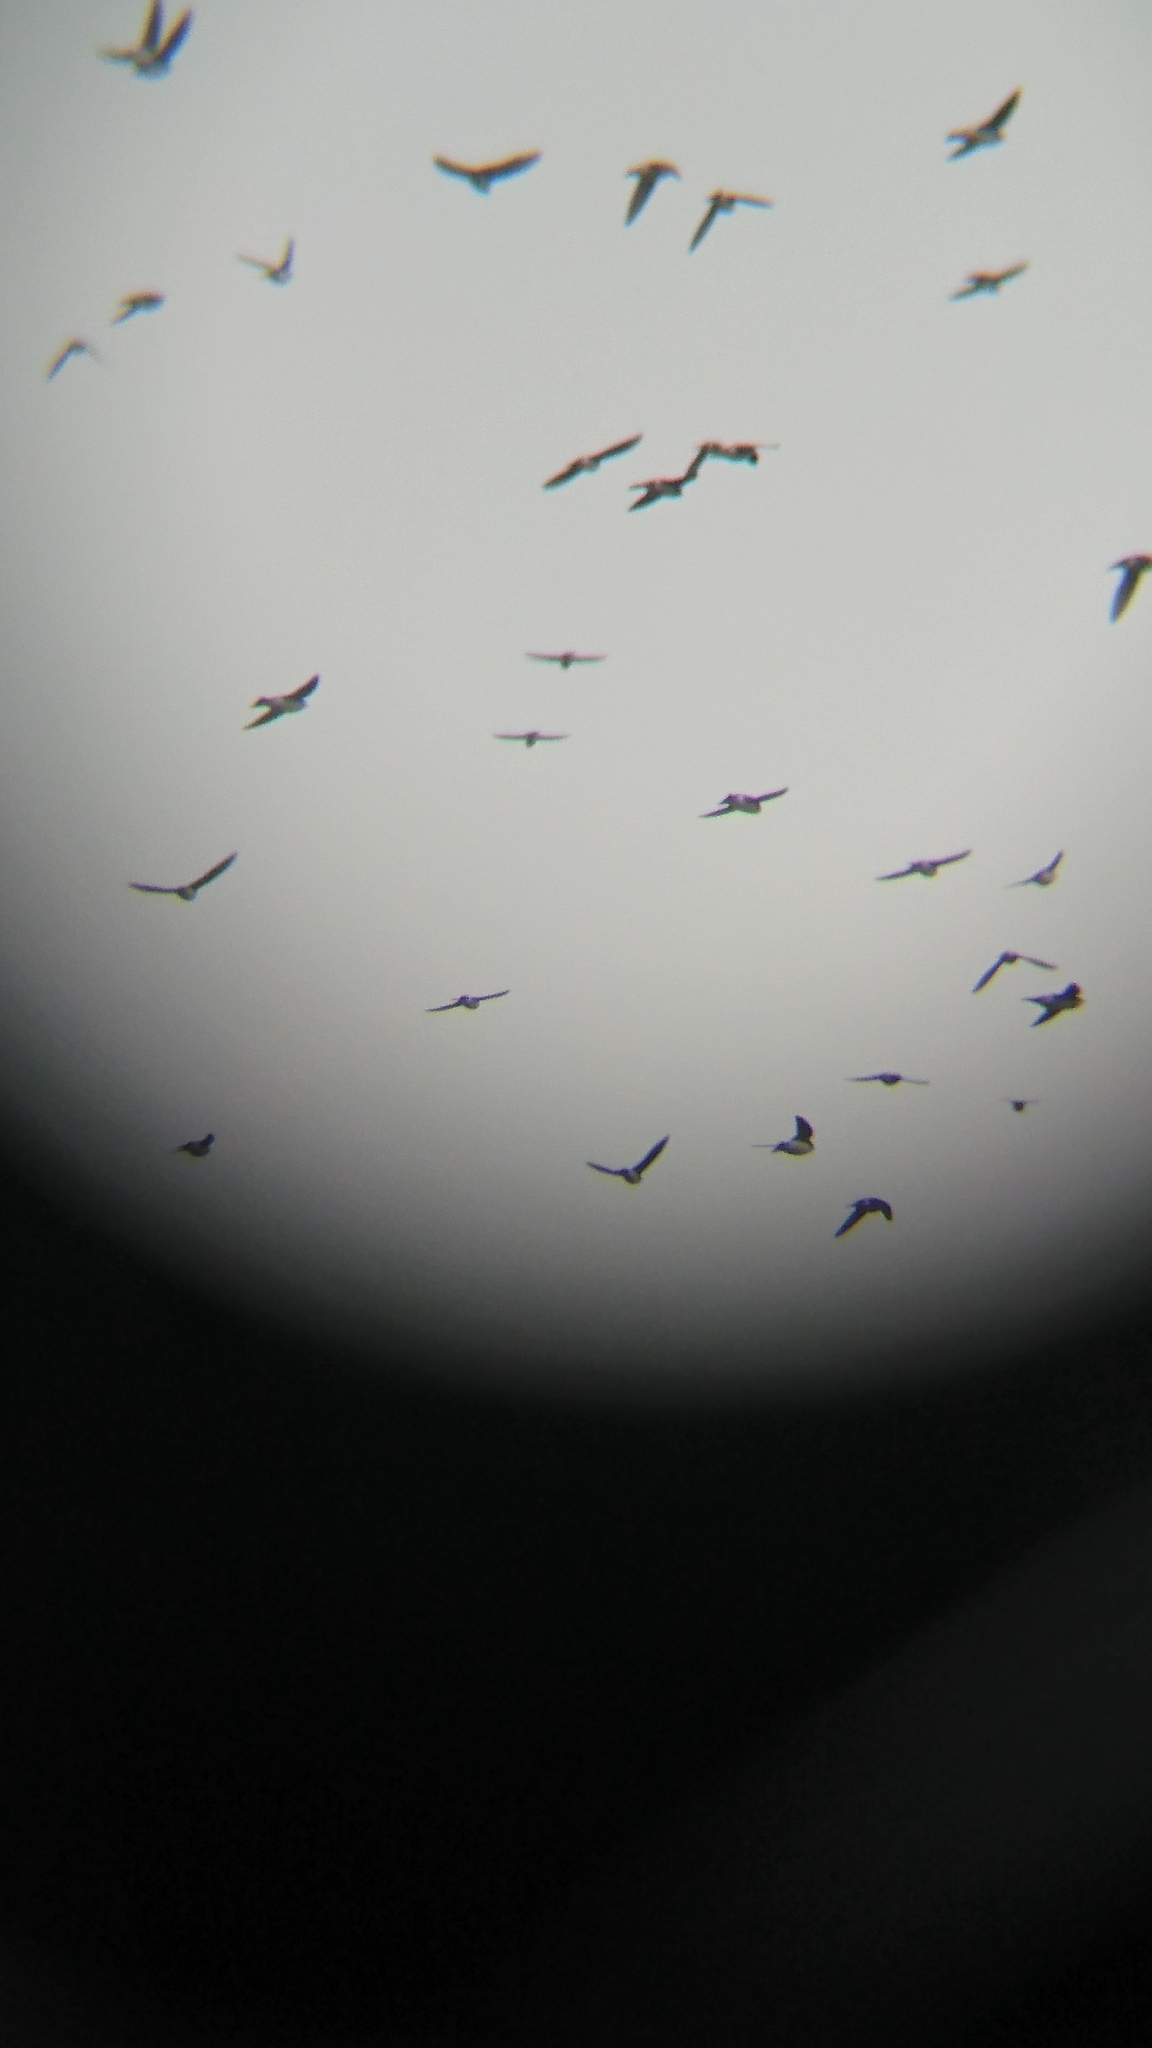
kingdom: Animalia
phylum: Chordata
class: Aves
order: Passeriformes
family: Hirundinidae
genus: Tachycineta
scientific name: Tachycineta bicolor
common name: Tree swallow
